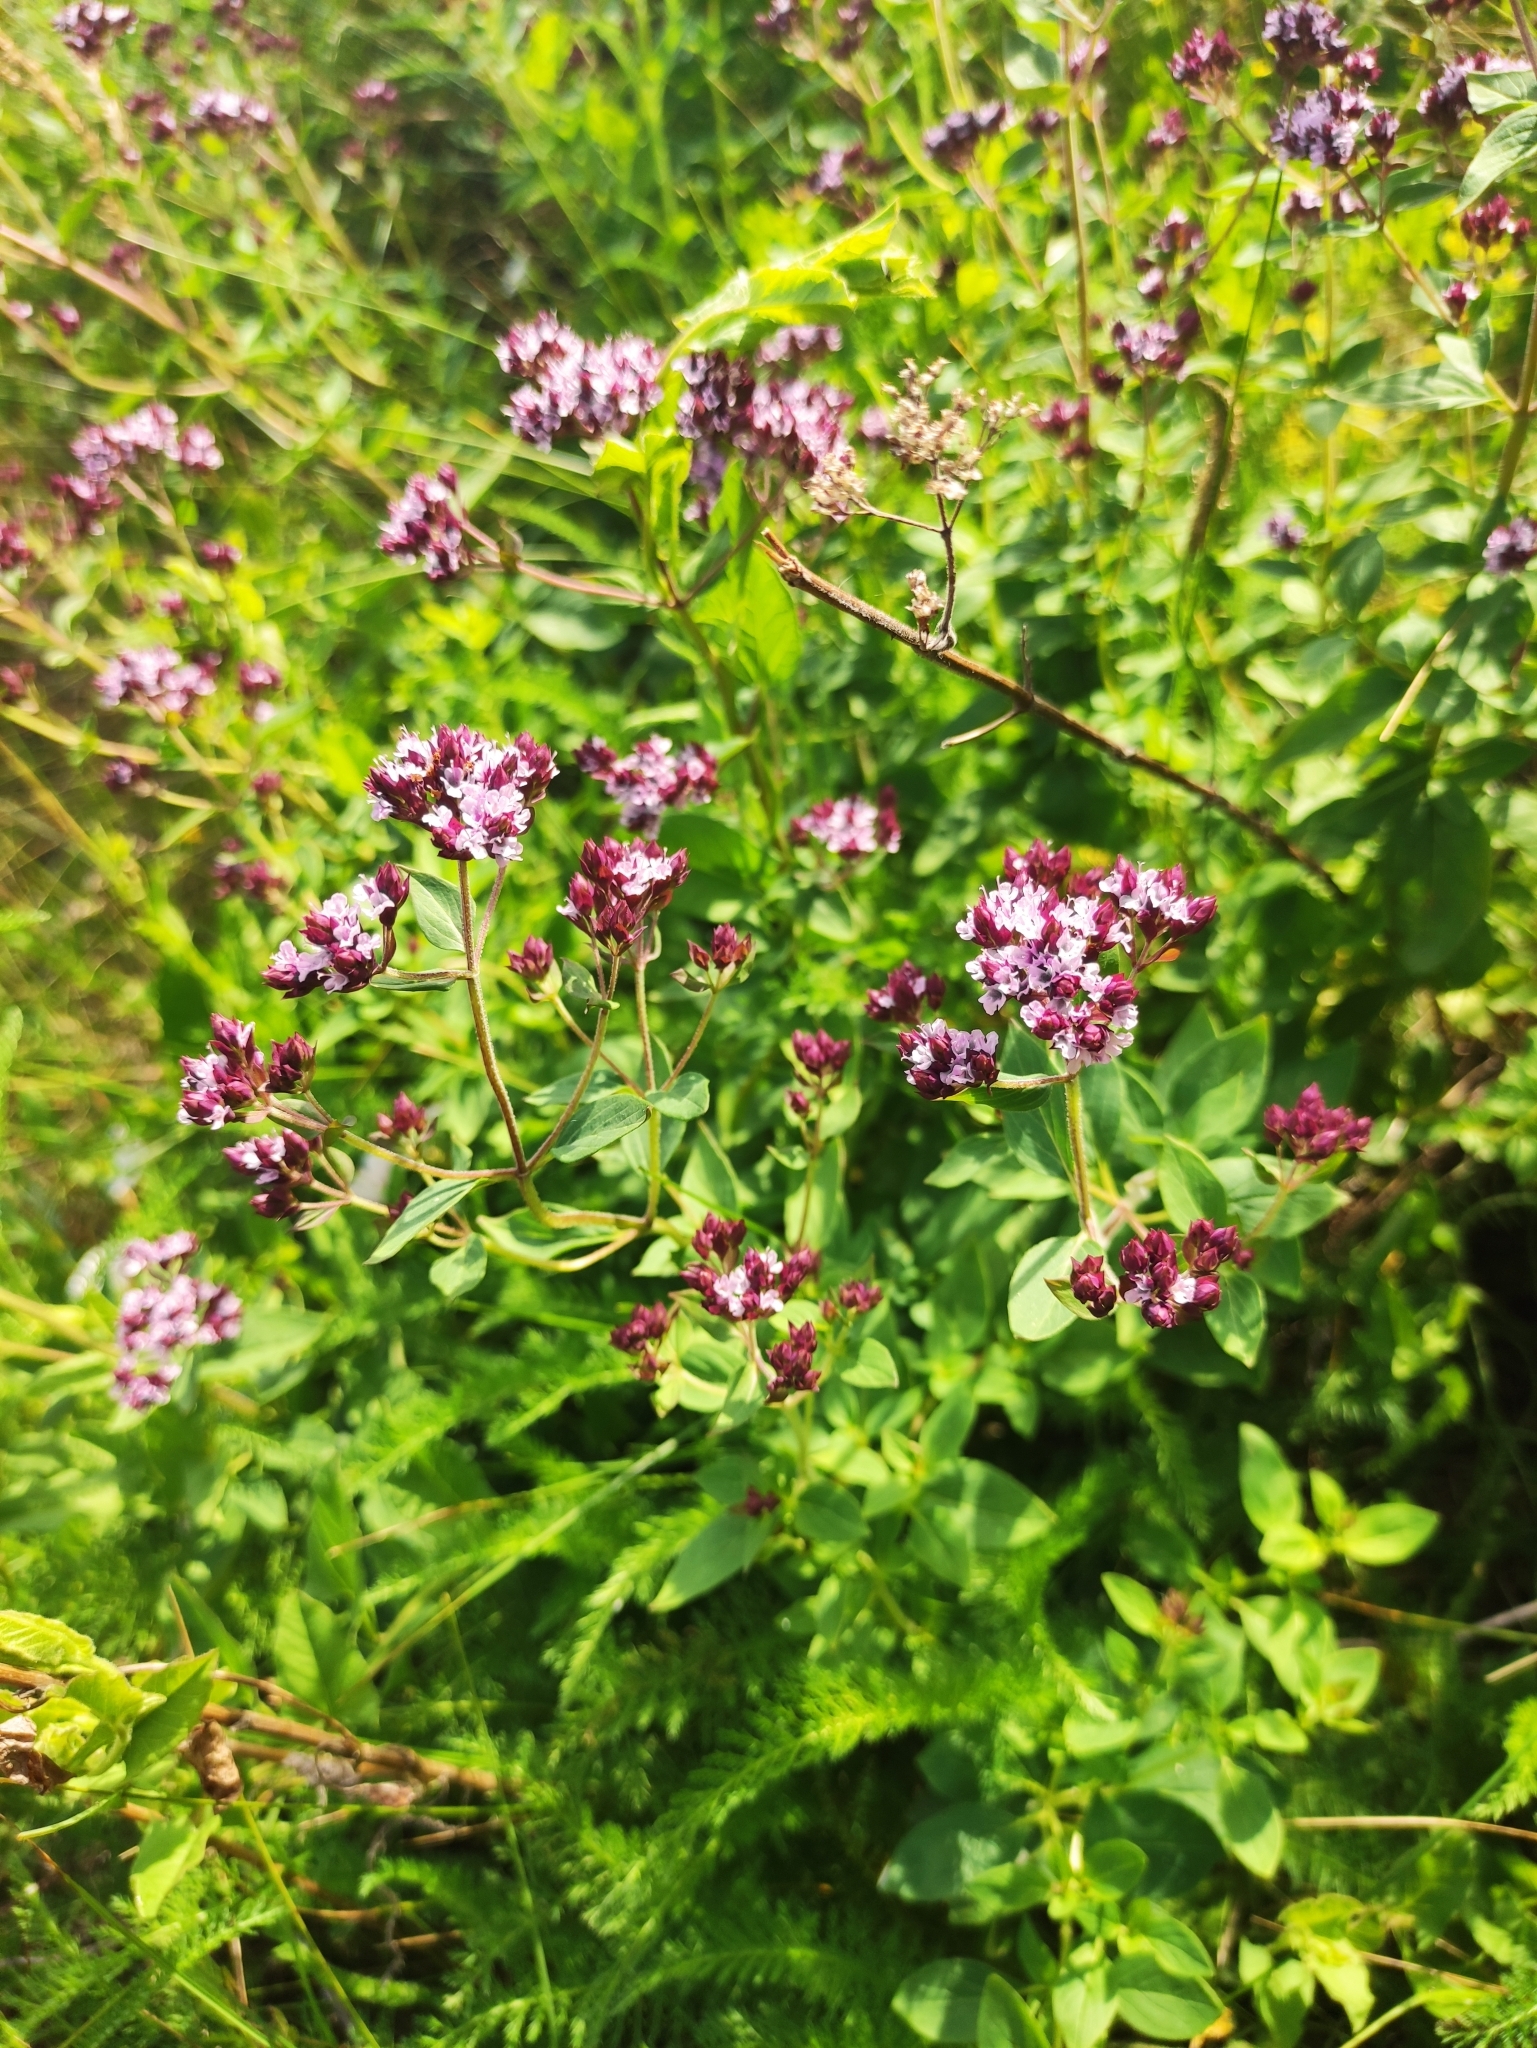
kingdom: Plantae
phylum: Tracheophyta
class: Magnoliopsida
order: Lamiales
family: Lamiaceae
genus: Origanum
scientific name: Origanum vulgare
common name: Wild marjoram
